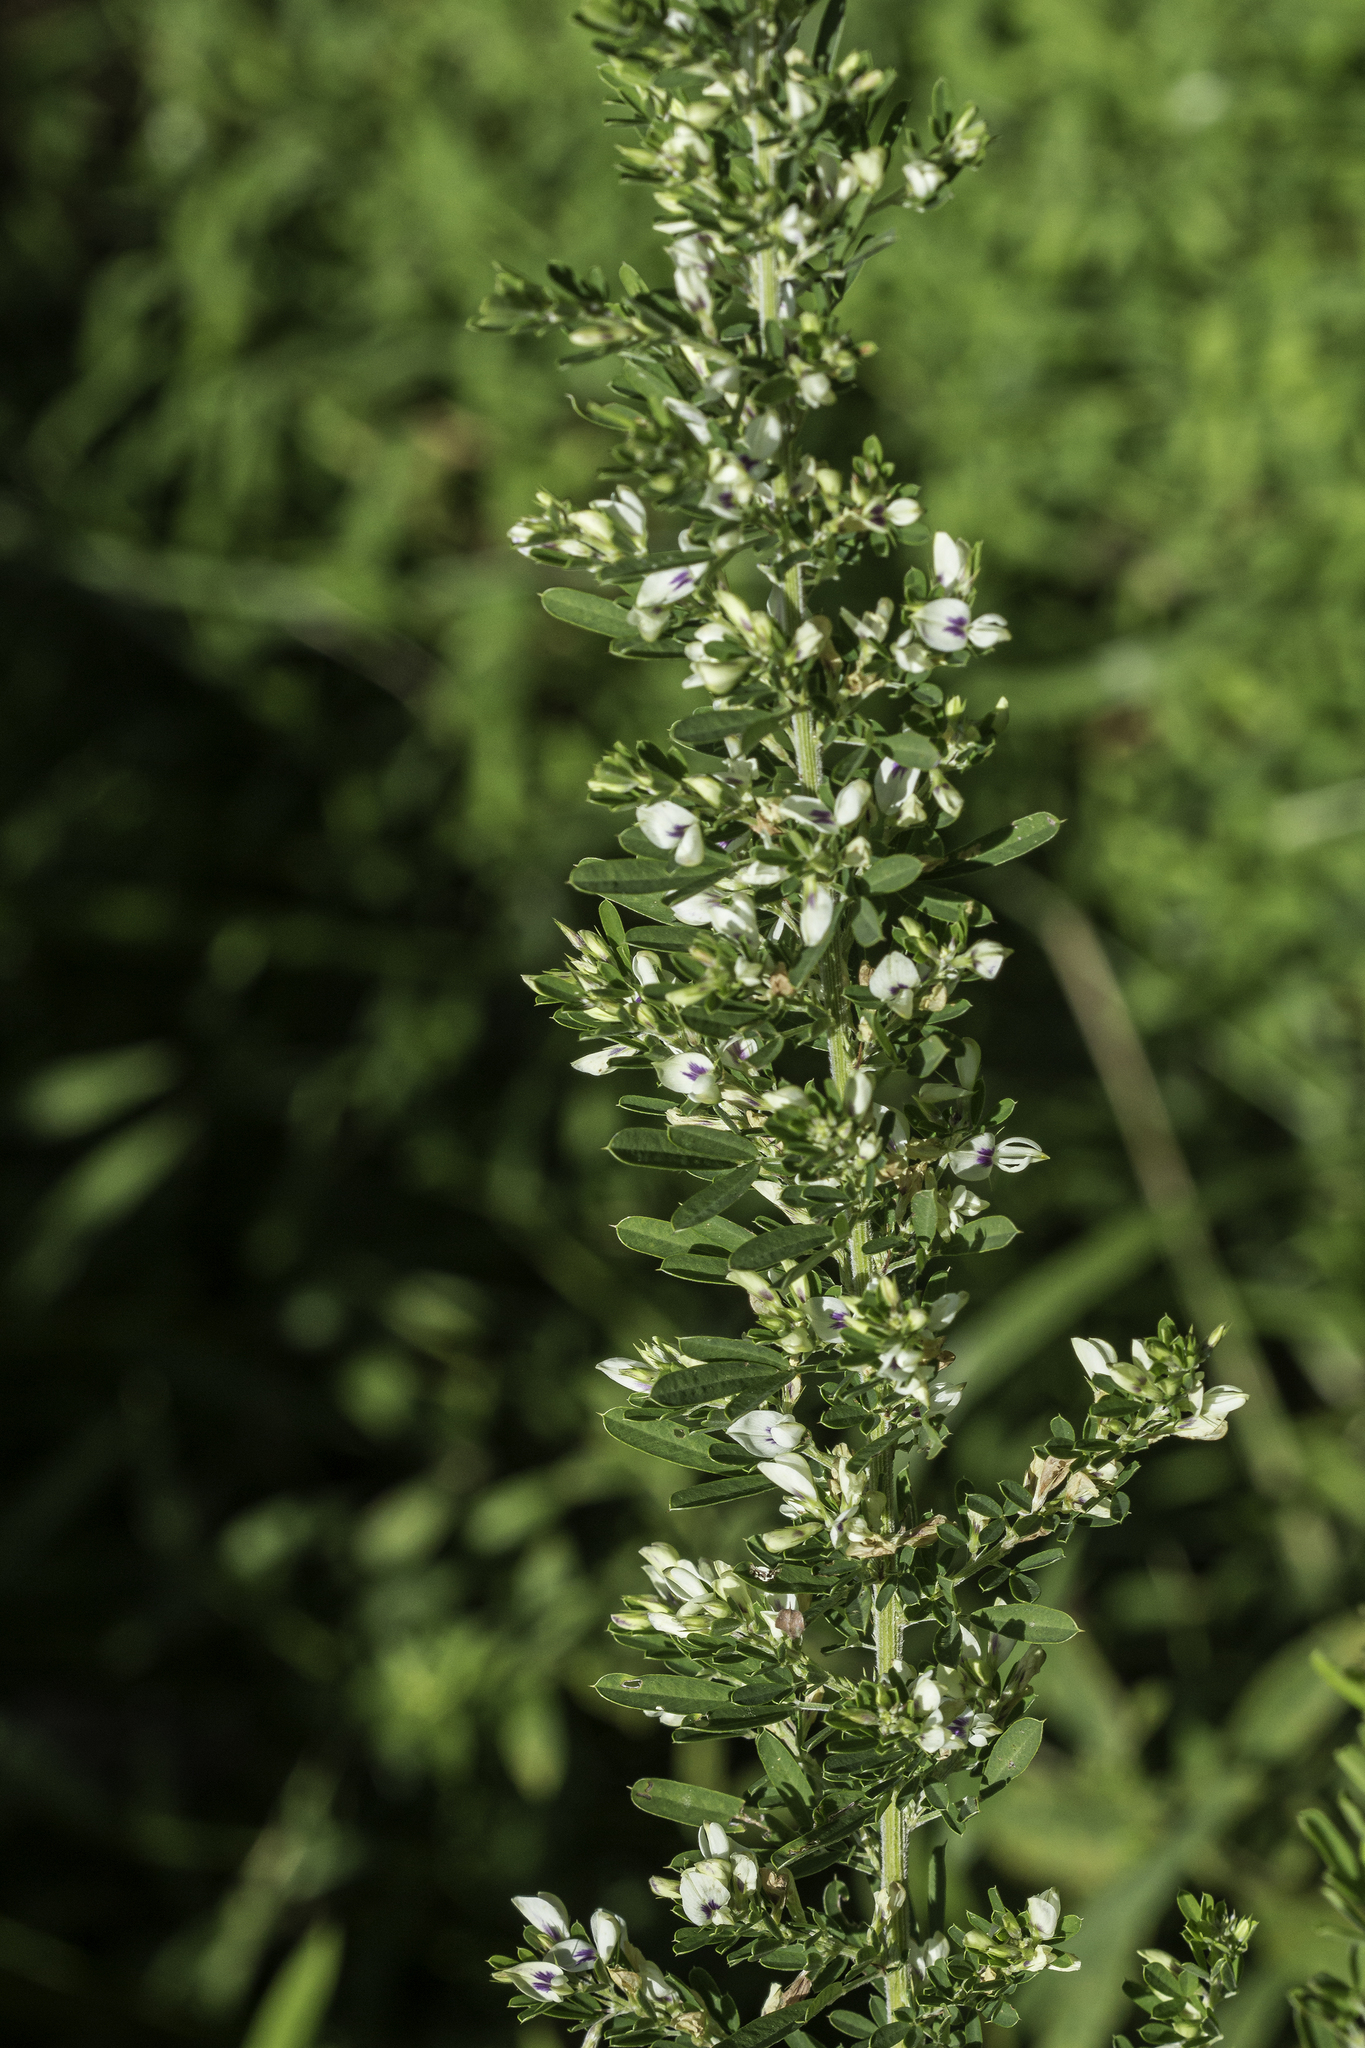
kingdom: Plantae
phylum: Tracheophyta
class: Magnoliopsida
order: Fabales
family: Fabaceae
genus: Lespedeza
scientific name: Lespedeza cuneata
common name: Chinese bush-clover
